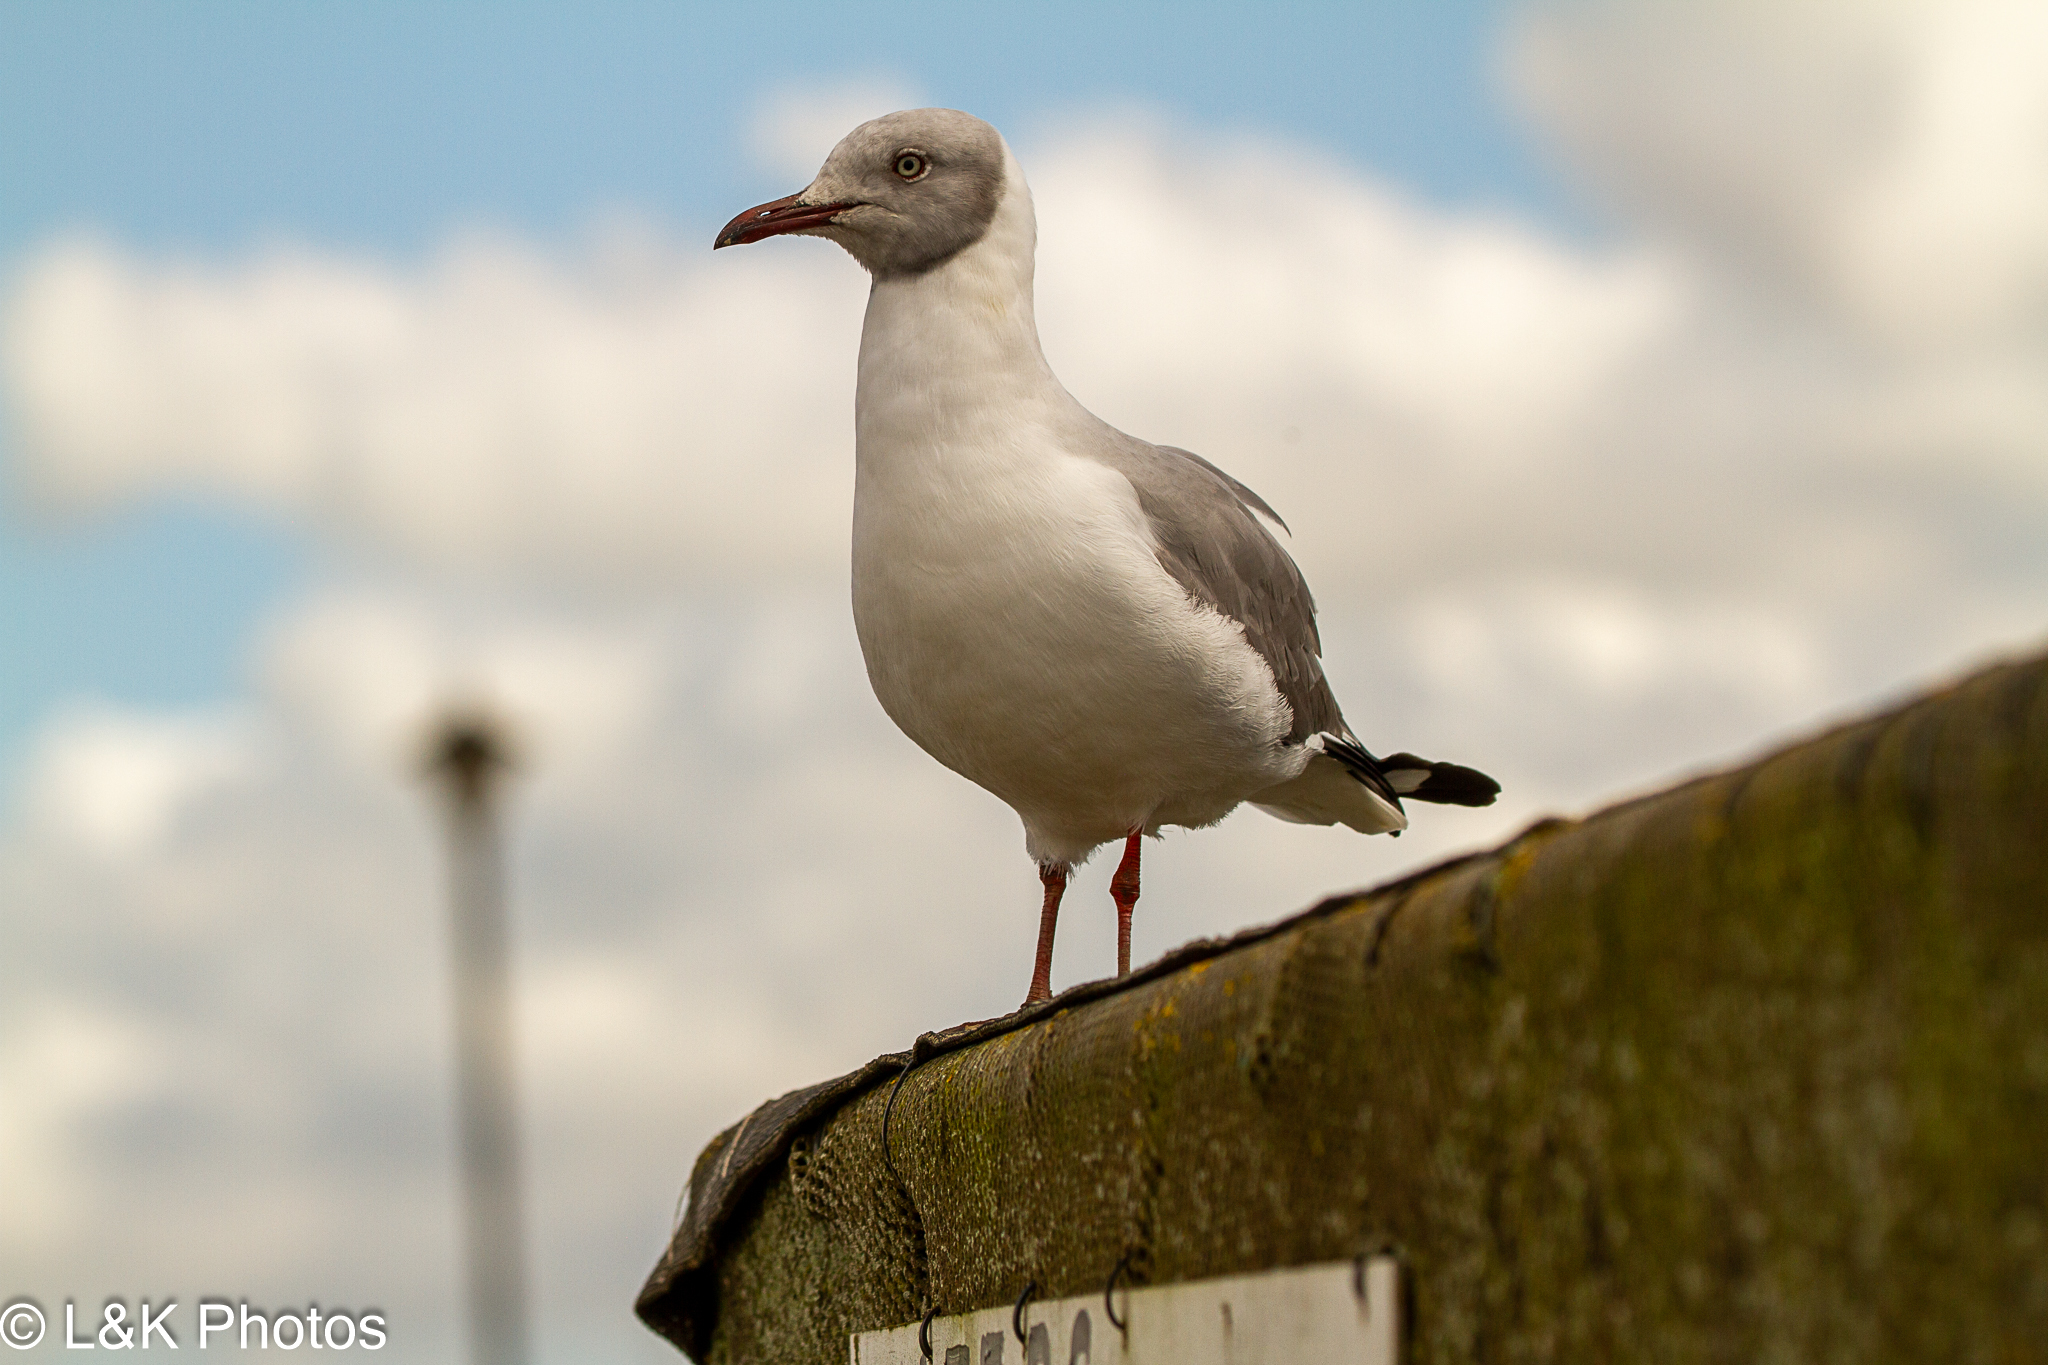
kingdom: Animalia
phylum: Chordata
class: Aves
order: Charadriiformes
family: Laridae
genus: Chroicocephalus
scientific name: Chroicocephalus cirrocephalus
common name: Grey-headed gull
